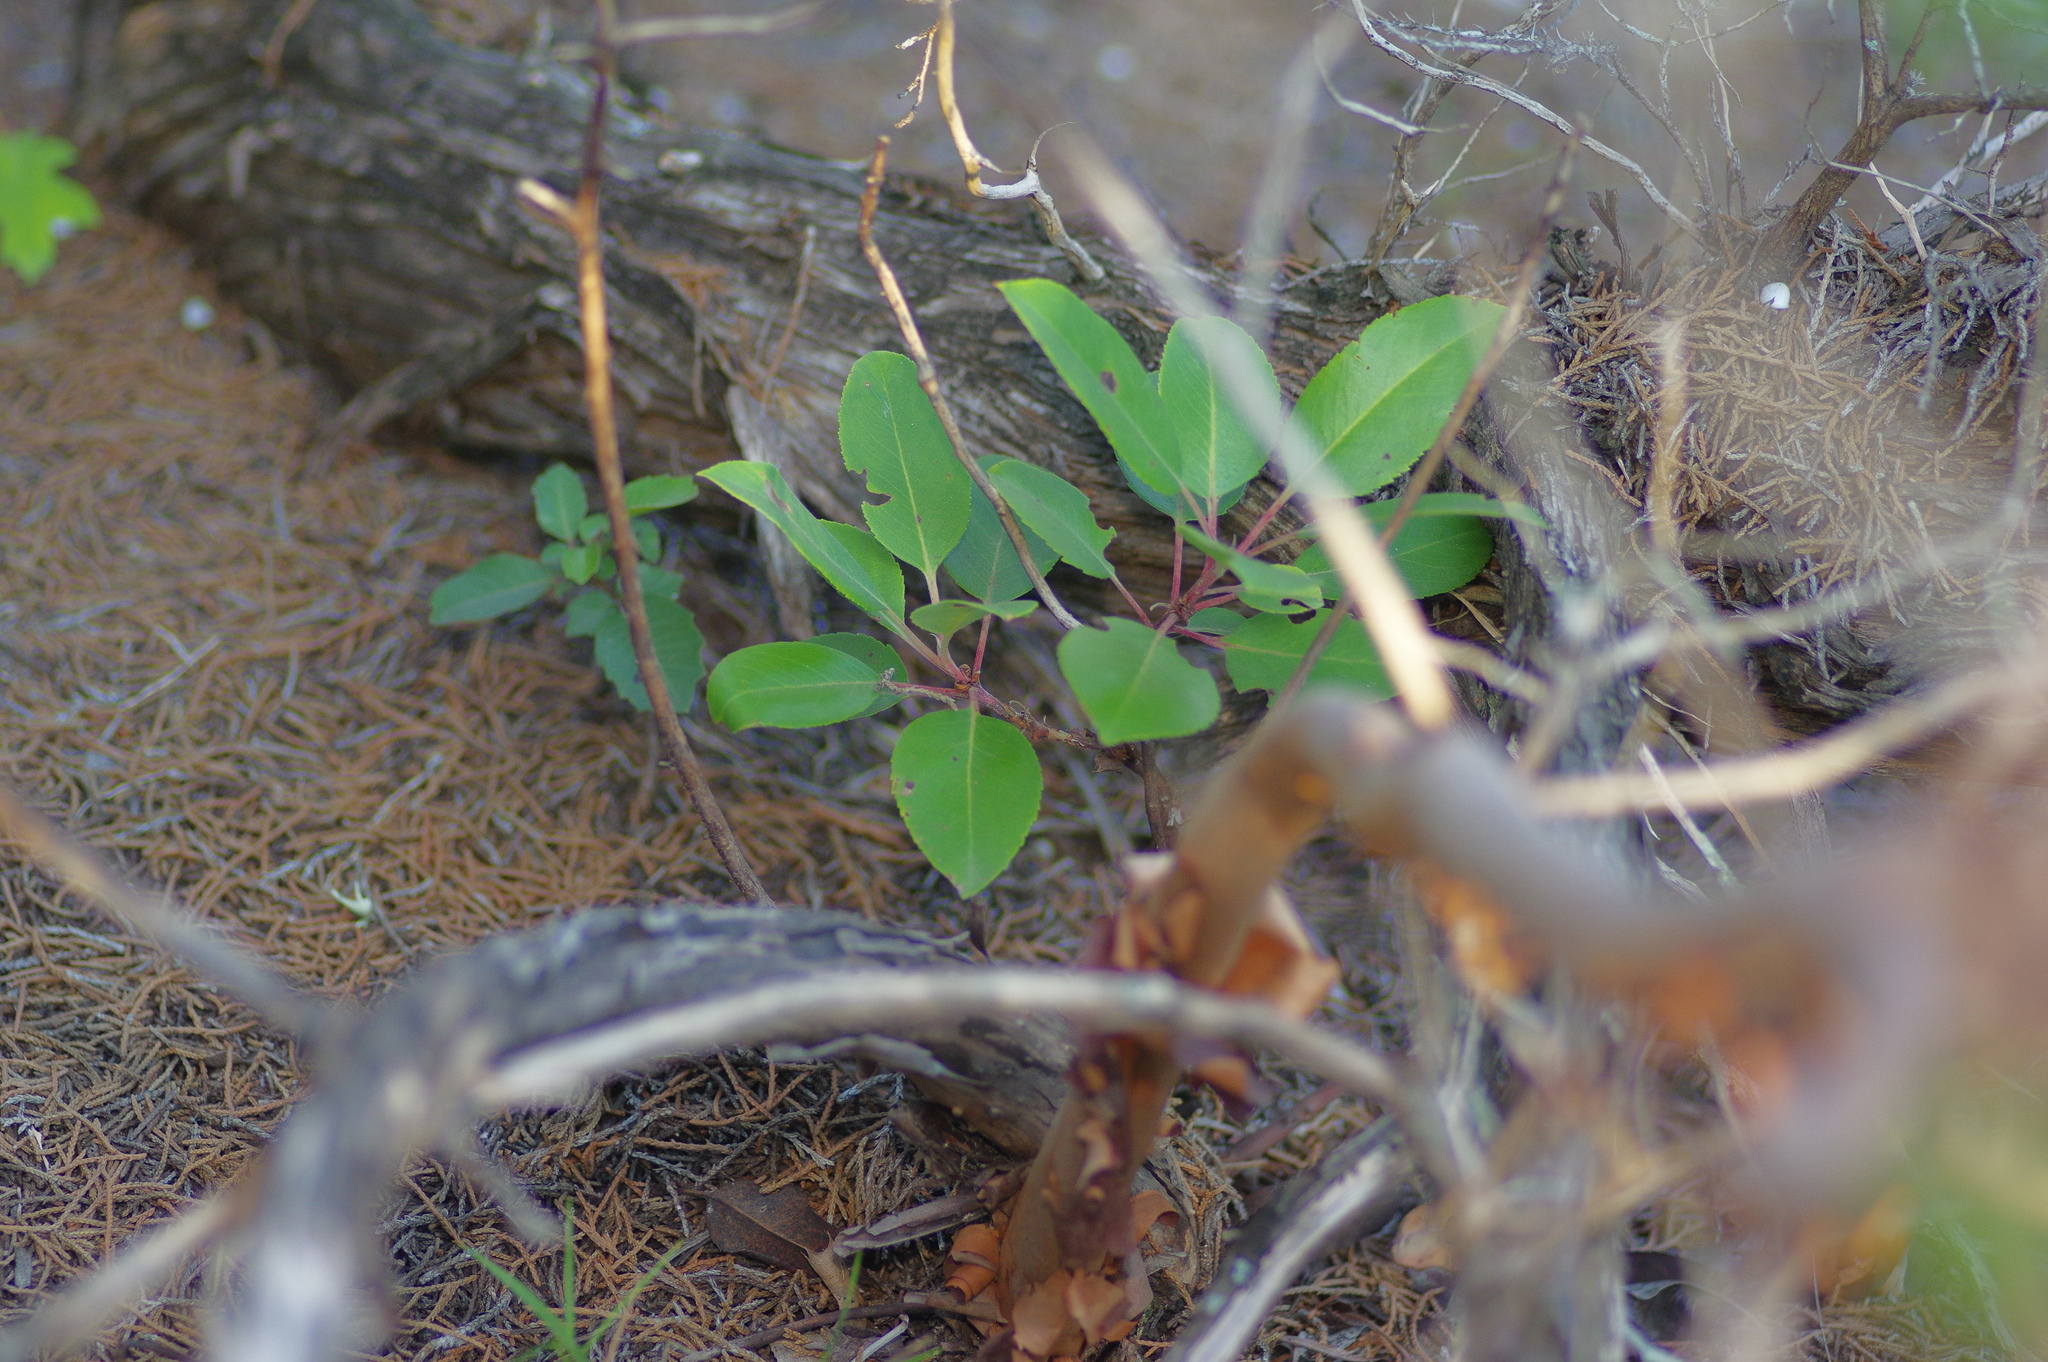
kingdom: Plantae
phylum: Tracheophyta
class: Magnoliopsida
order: Ericales
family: Ericaceae
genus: Arbutus
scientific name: Arbutus xalapensis
